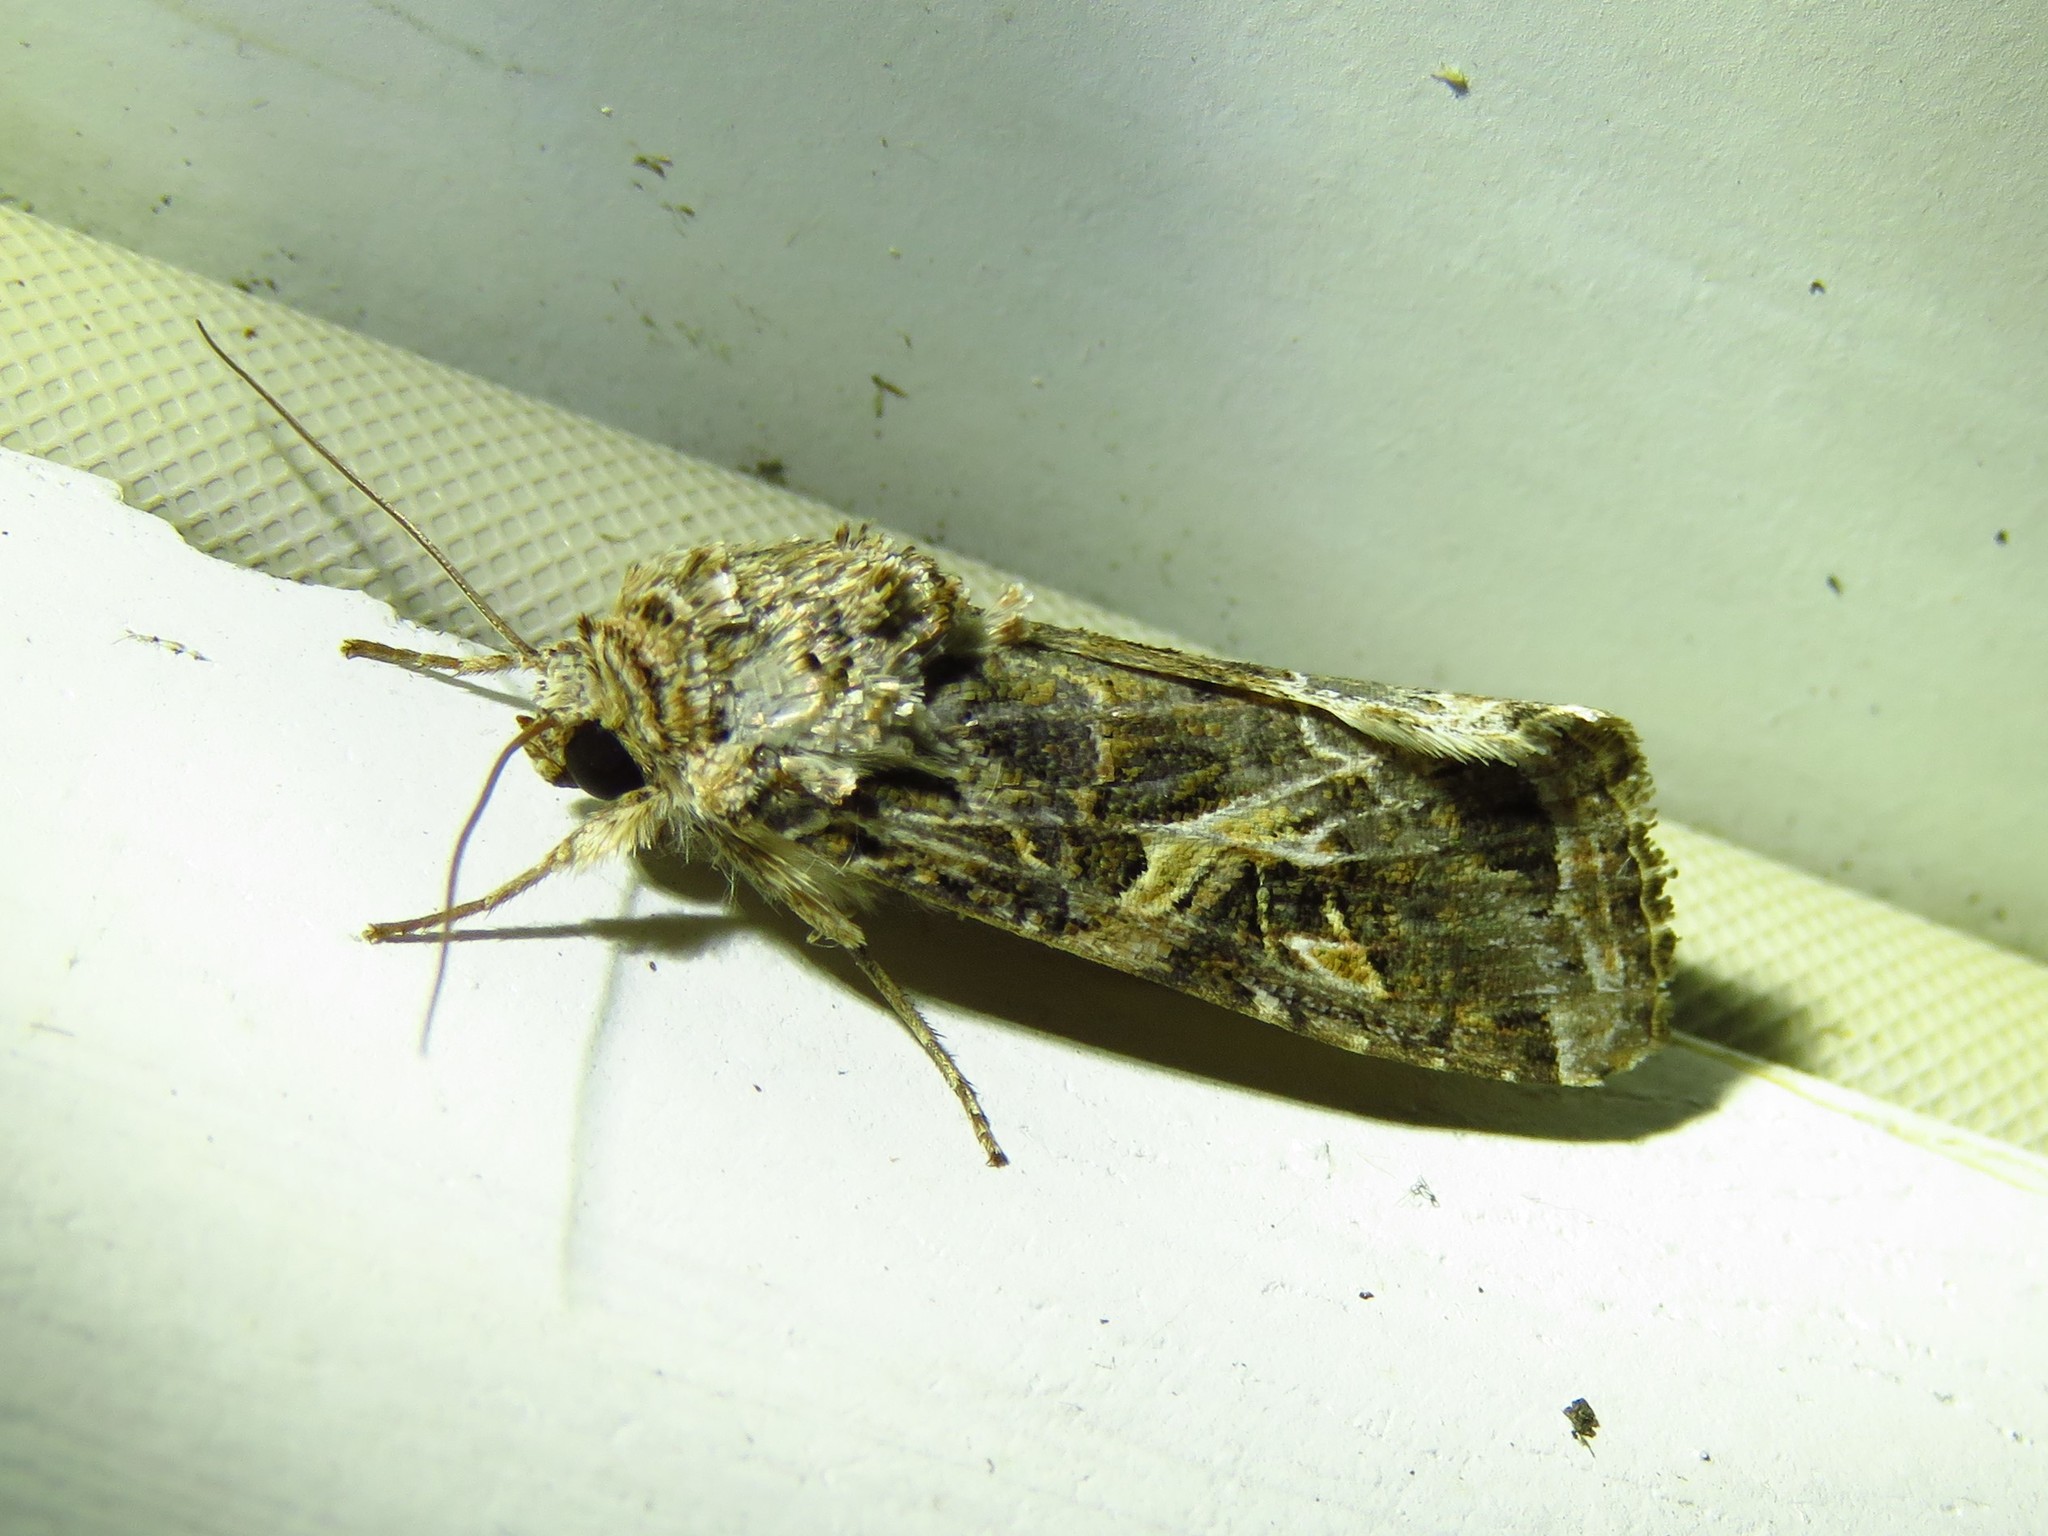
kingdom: Animalia
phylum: Arthropoda
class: Insecta
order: Lepidoptera
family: Noctuidae
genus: Spodoptera
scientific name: Spodoptera ornithogalli
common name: Yellow-striped armyworm
